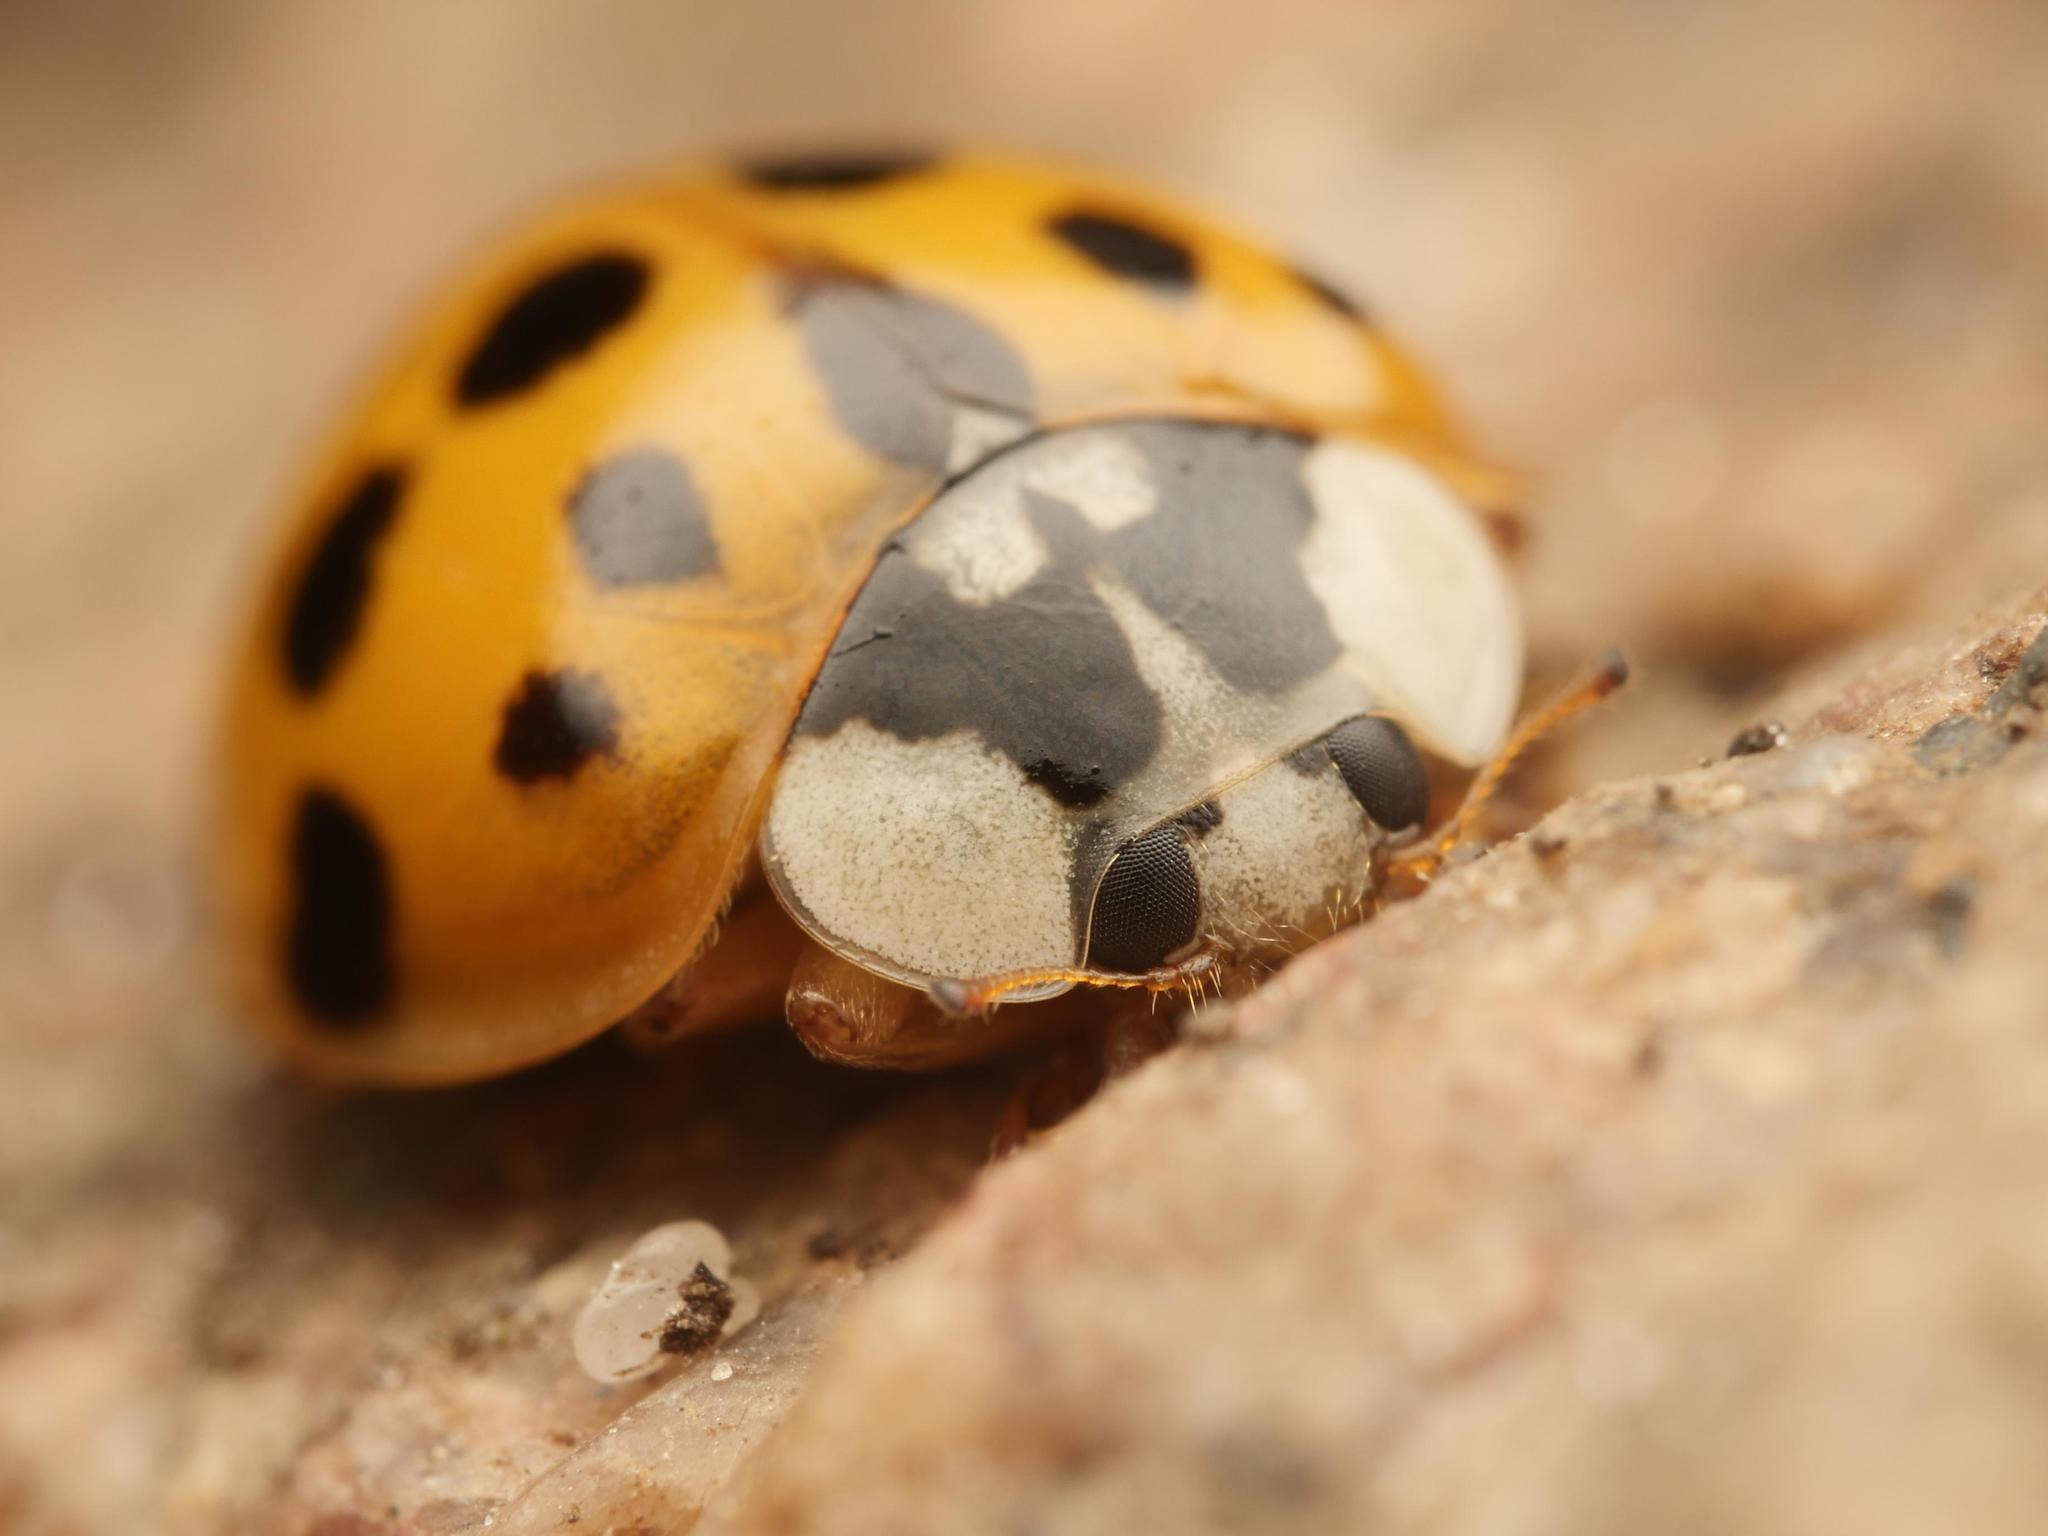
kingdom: Animalia
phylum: Arthropoda
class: Insecta
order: Coleoptera
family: Coccinellidae
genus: Harmonia
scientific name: Harmonia axyridis
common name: Harlequin ladybird
